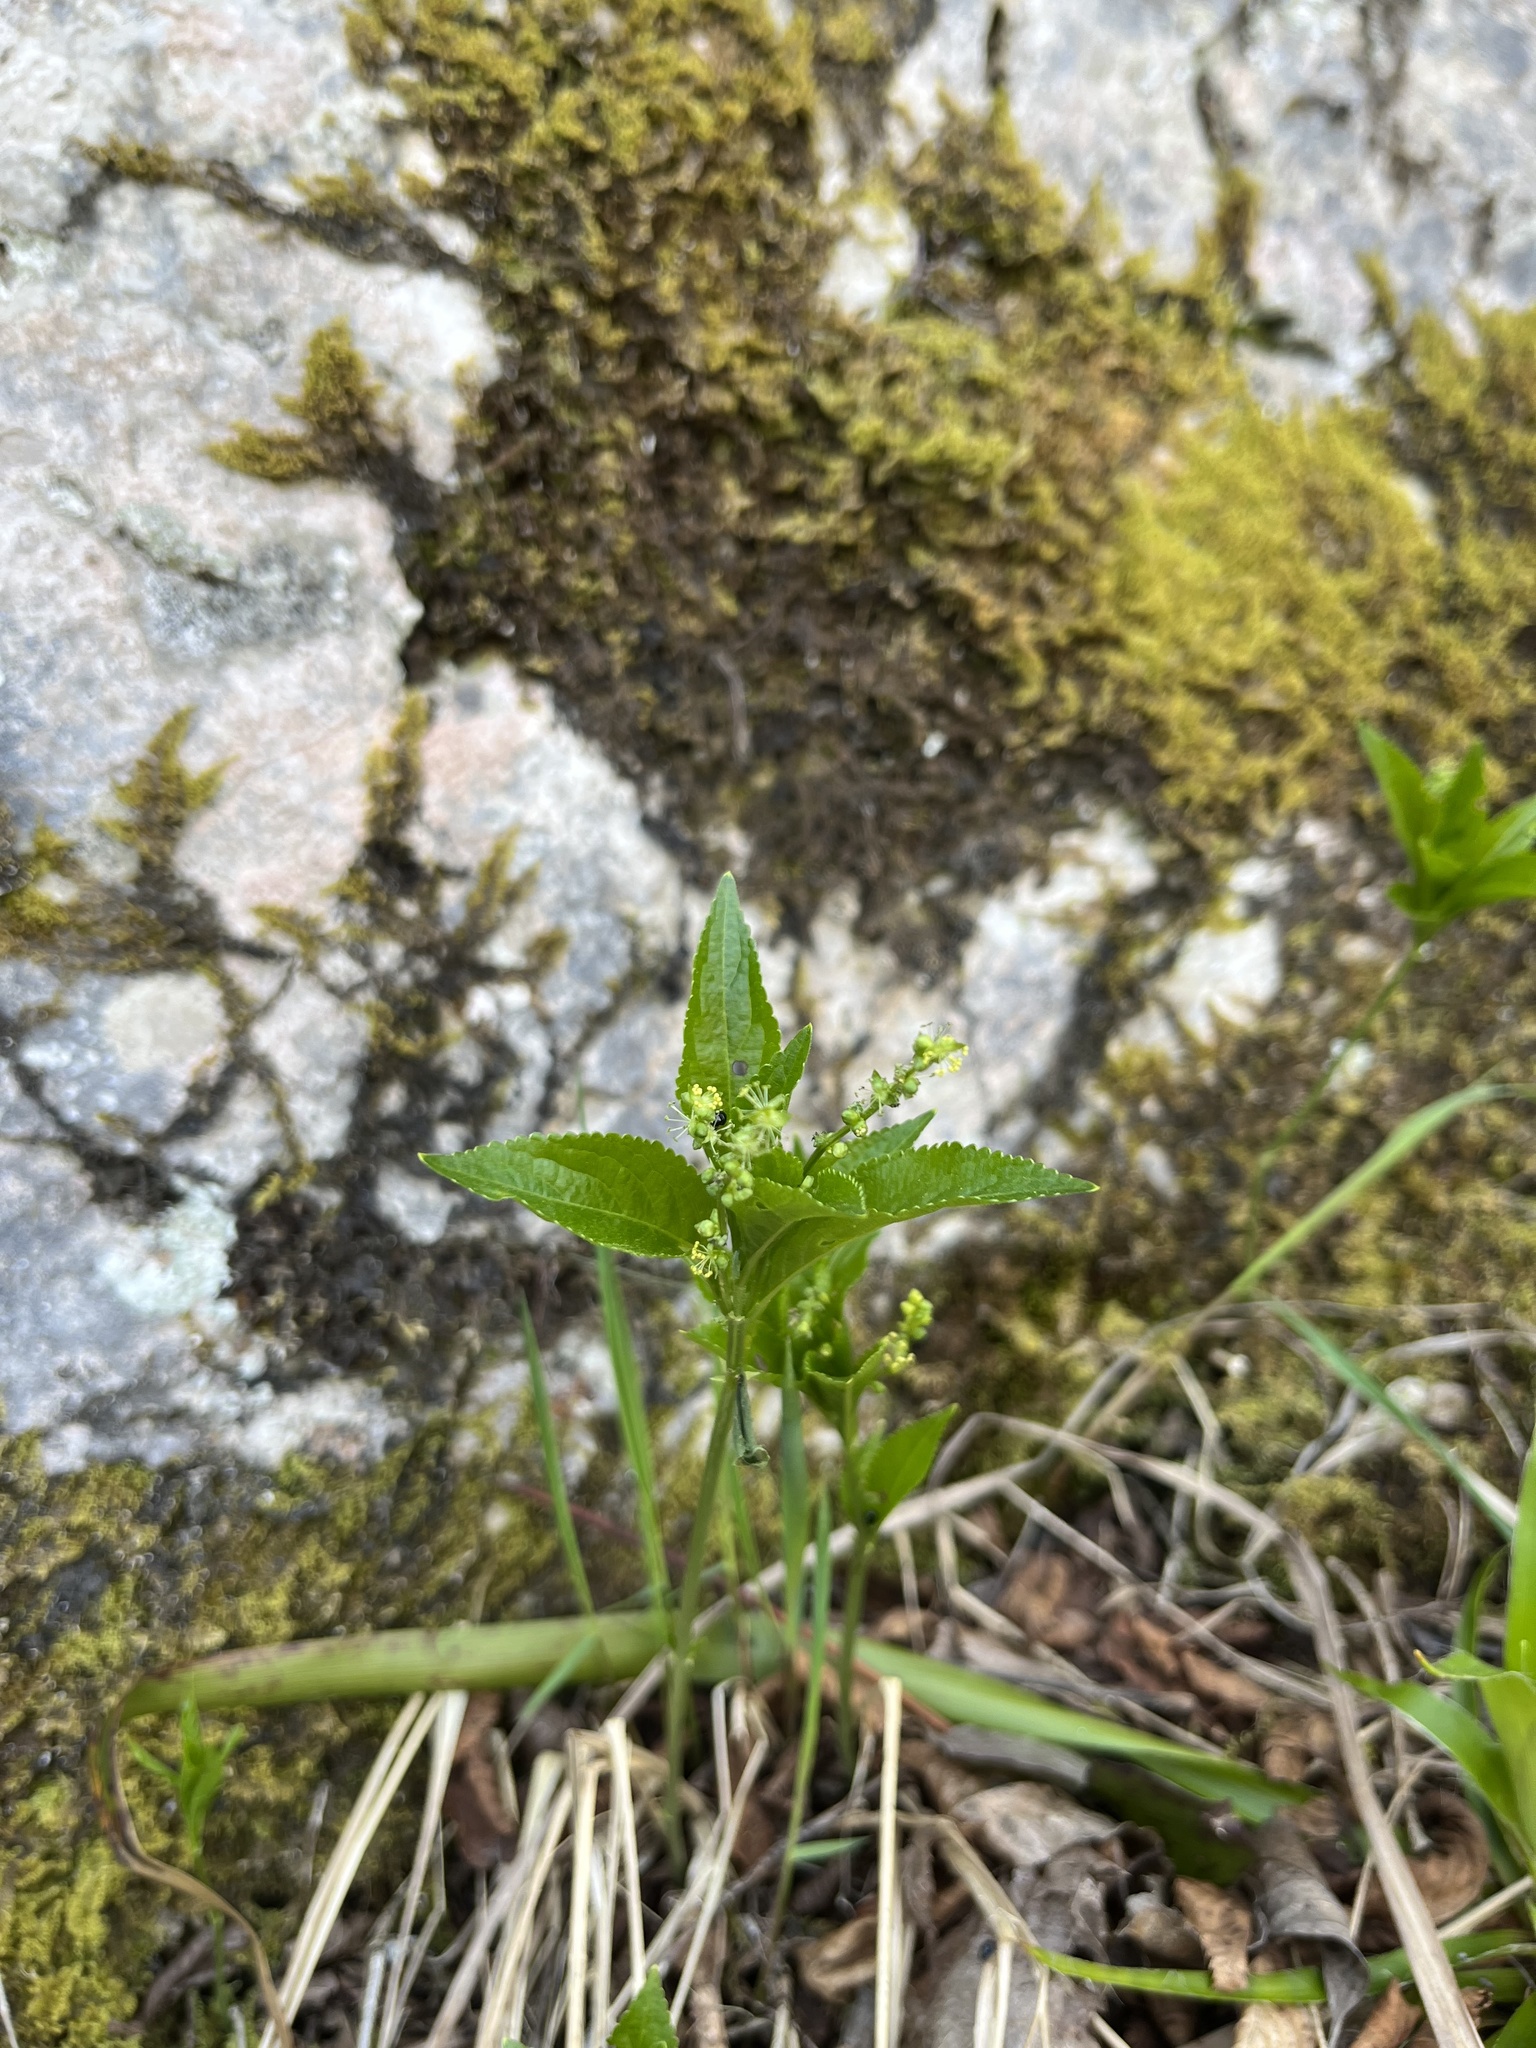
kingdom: Plantae
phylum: Tracheophyta
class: Magnoliopsida
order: Malpighiales
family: Euphorbiaceae
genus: Mercurialis
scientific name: Mercurialis perennis
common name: Dog mercury
